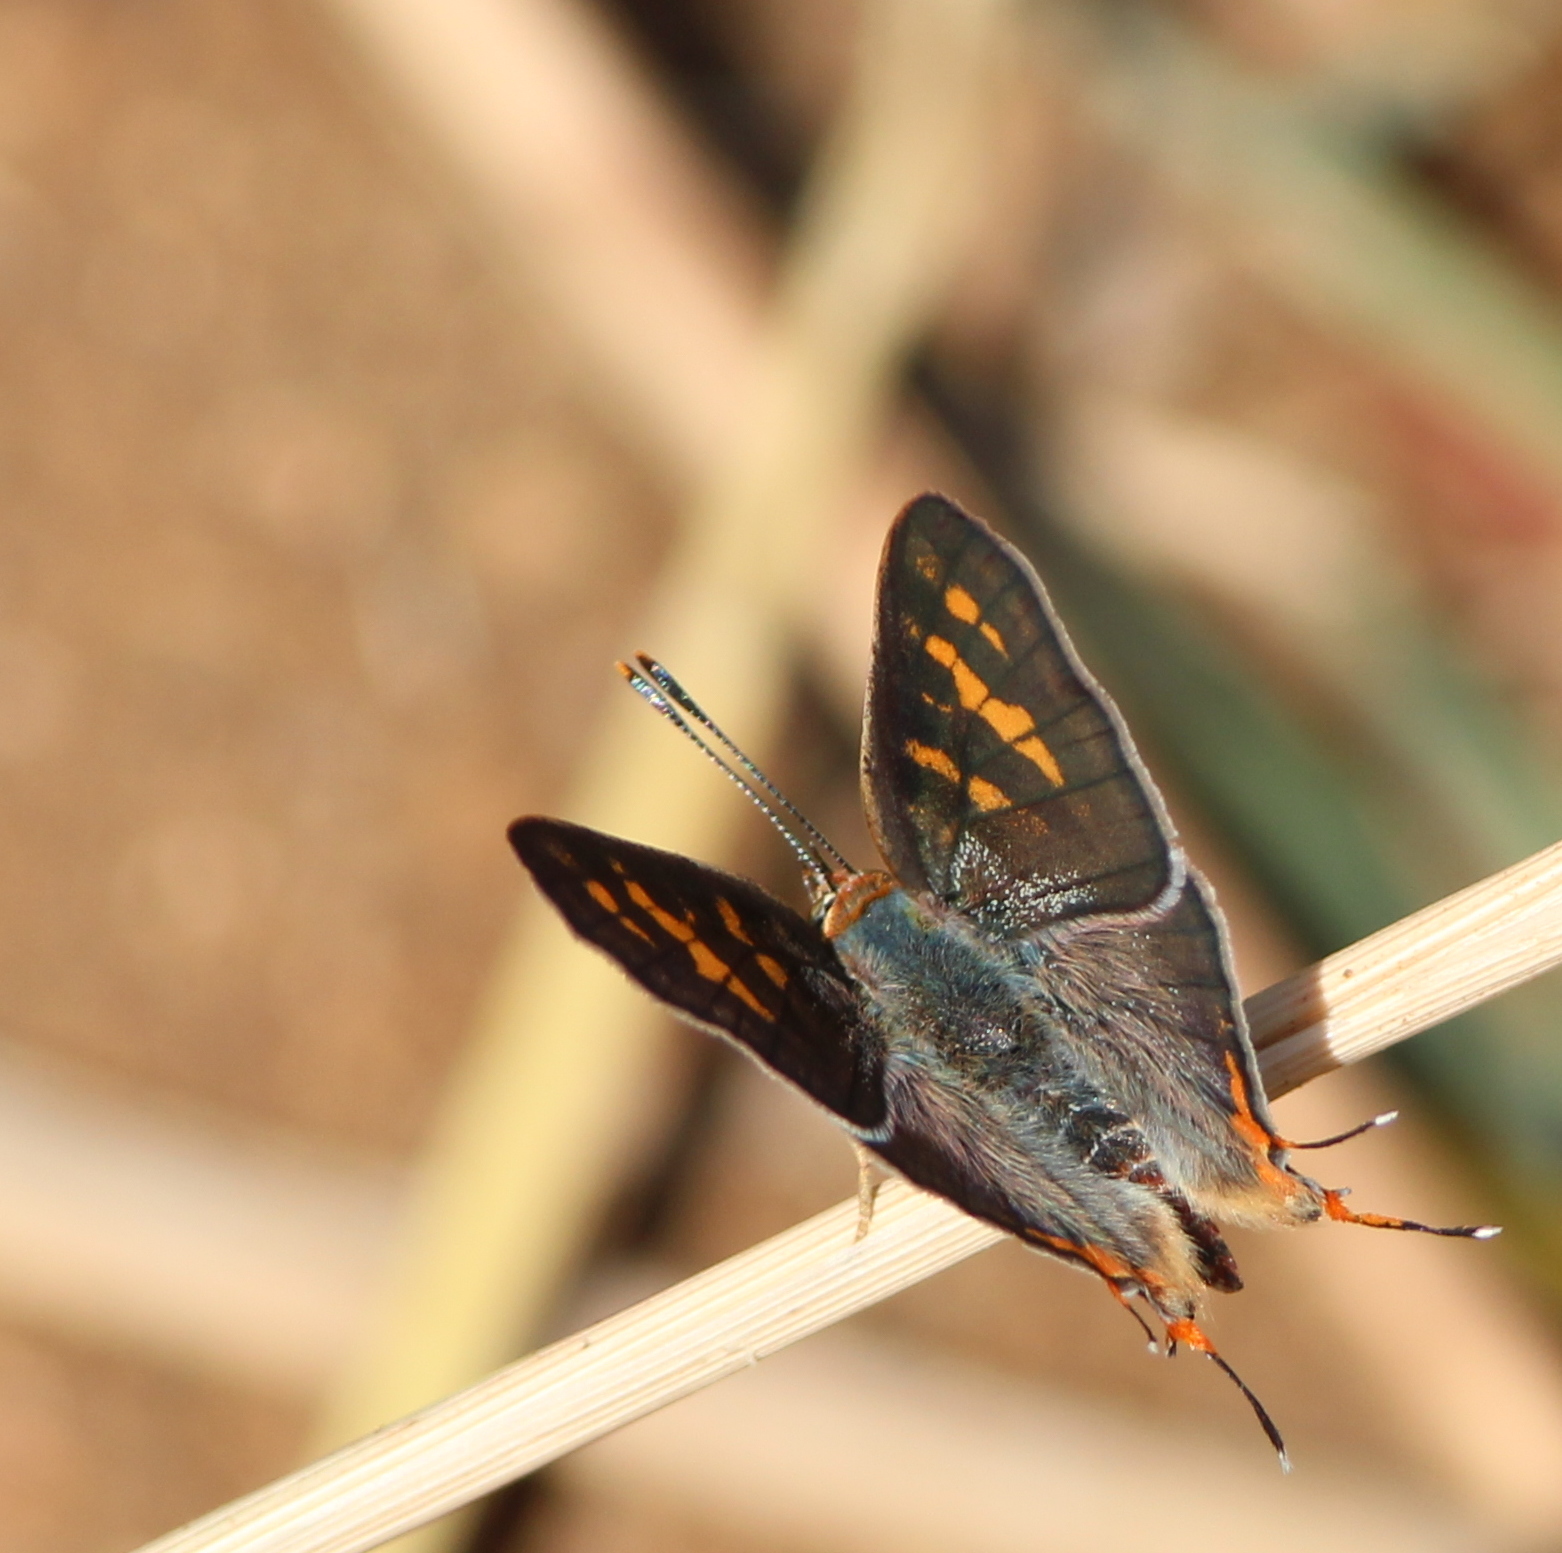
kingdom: Animalia
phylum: Arthropoda
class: Insecta
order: Lepidoptera
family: Lycaenidae
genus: Cigaritis
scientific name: Cigaritis vulcanus
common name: Common silverline
